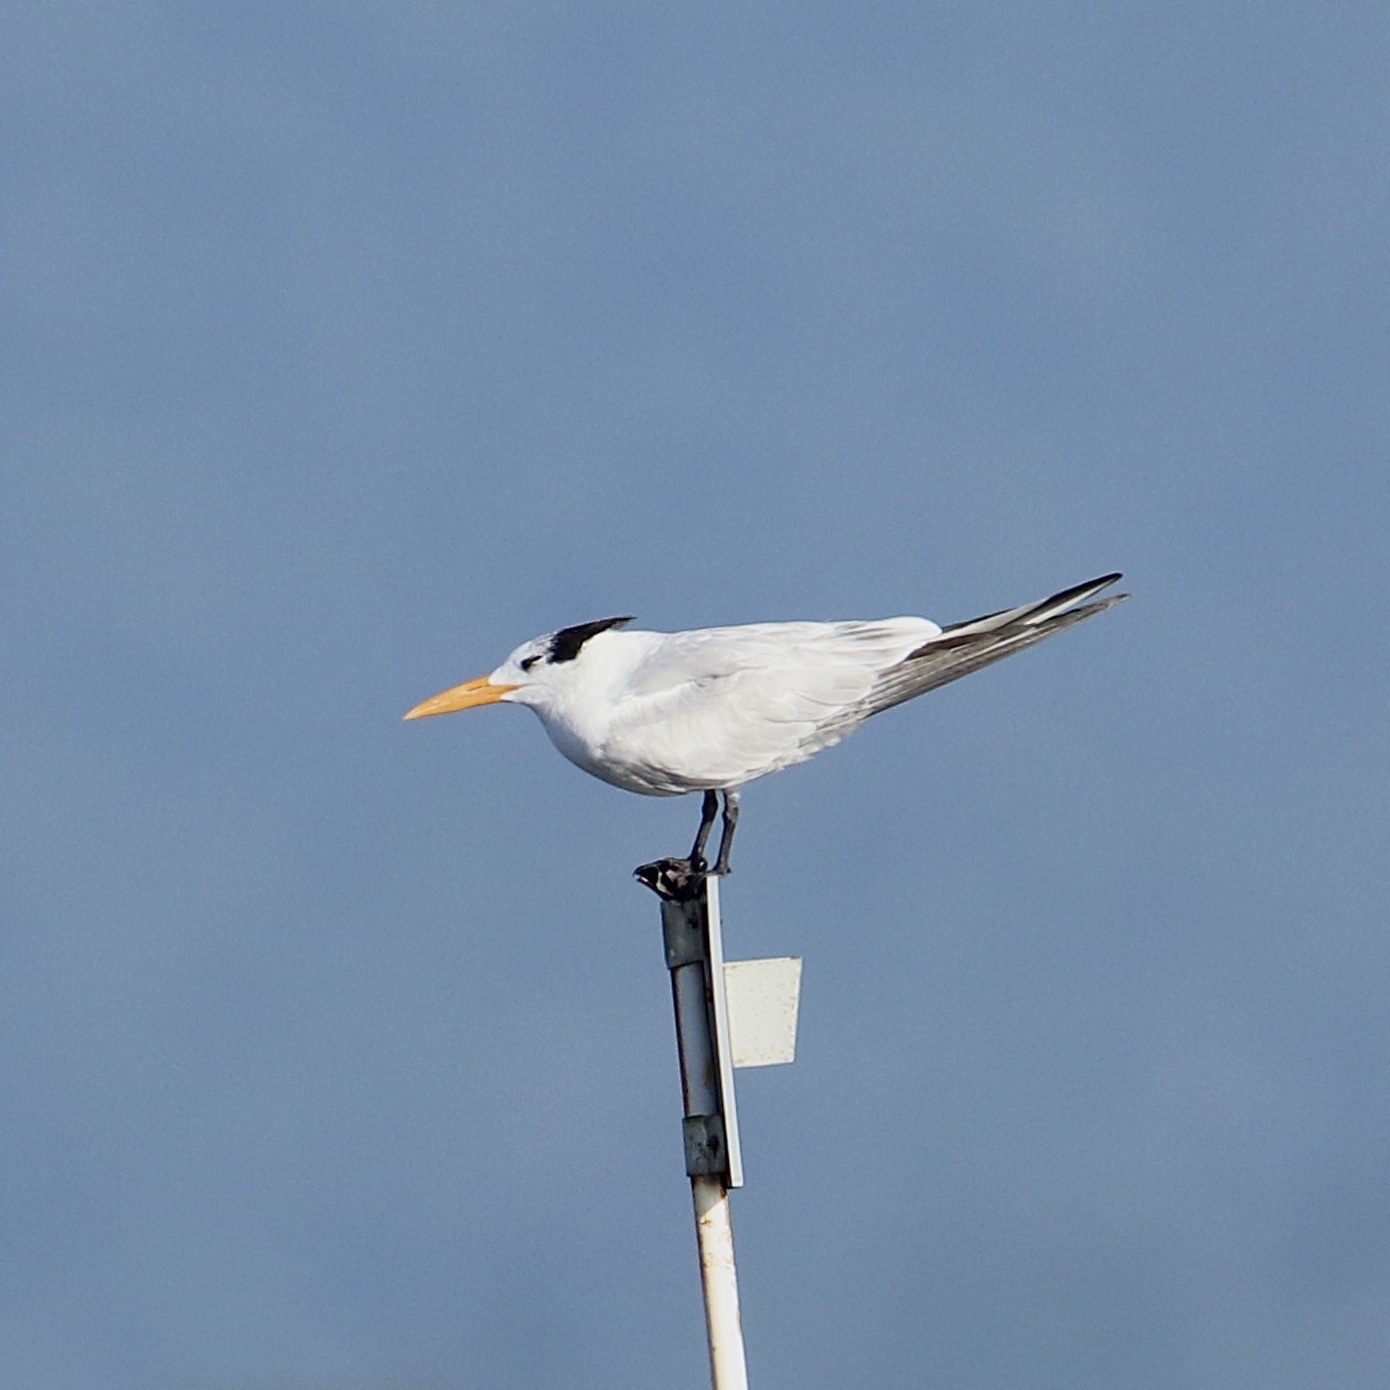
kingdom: Animalia
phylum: Chordata
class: Aves
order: Charadriiformes
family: Laridae
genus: Thalasseus
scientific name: Thalasseus maximus
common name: Royal tern
